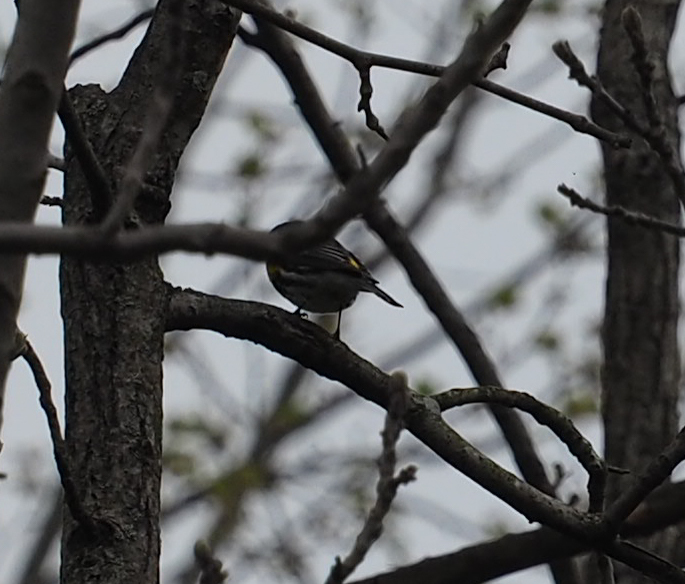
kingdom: Animalia
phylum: Chordata
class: Aves
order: Passeriformes
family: Parulidae
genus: Setophaga
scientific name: Setophaga coronata
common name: Myrtle warbler
